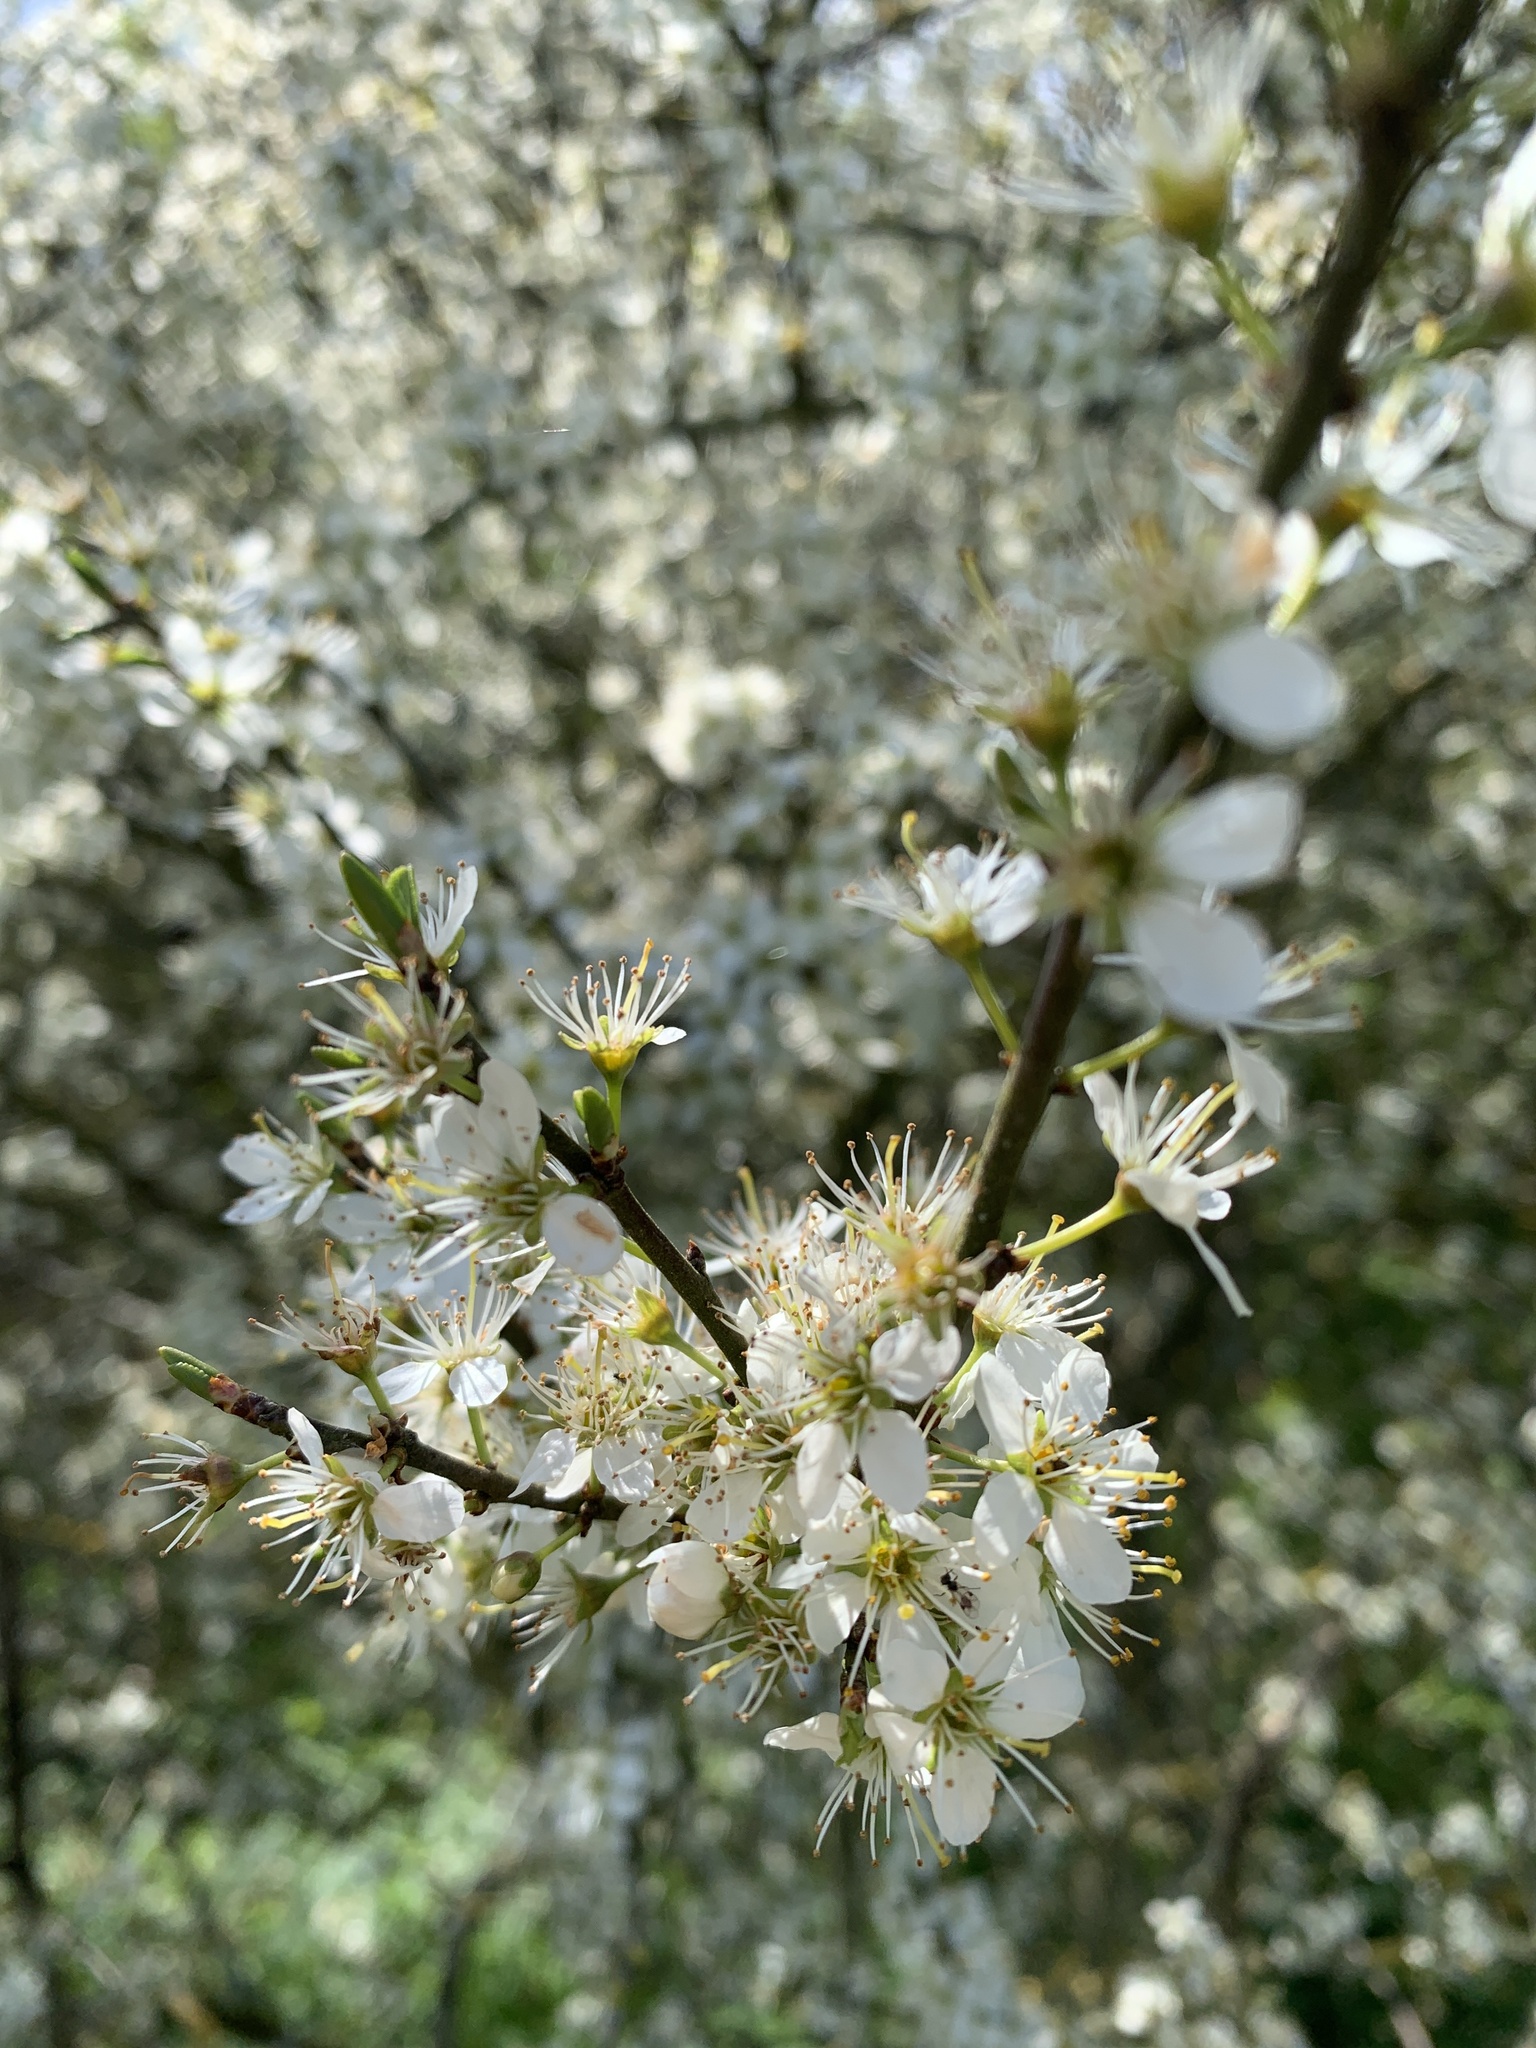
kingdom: Plantae
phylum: Tracheophyta
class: Magnoliopsida
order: Rosales
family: Rosaceae
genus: Prunus
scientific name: Prunus spinosa
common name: Blackthorn
